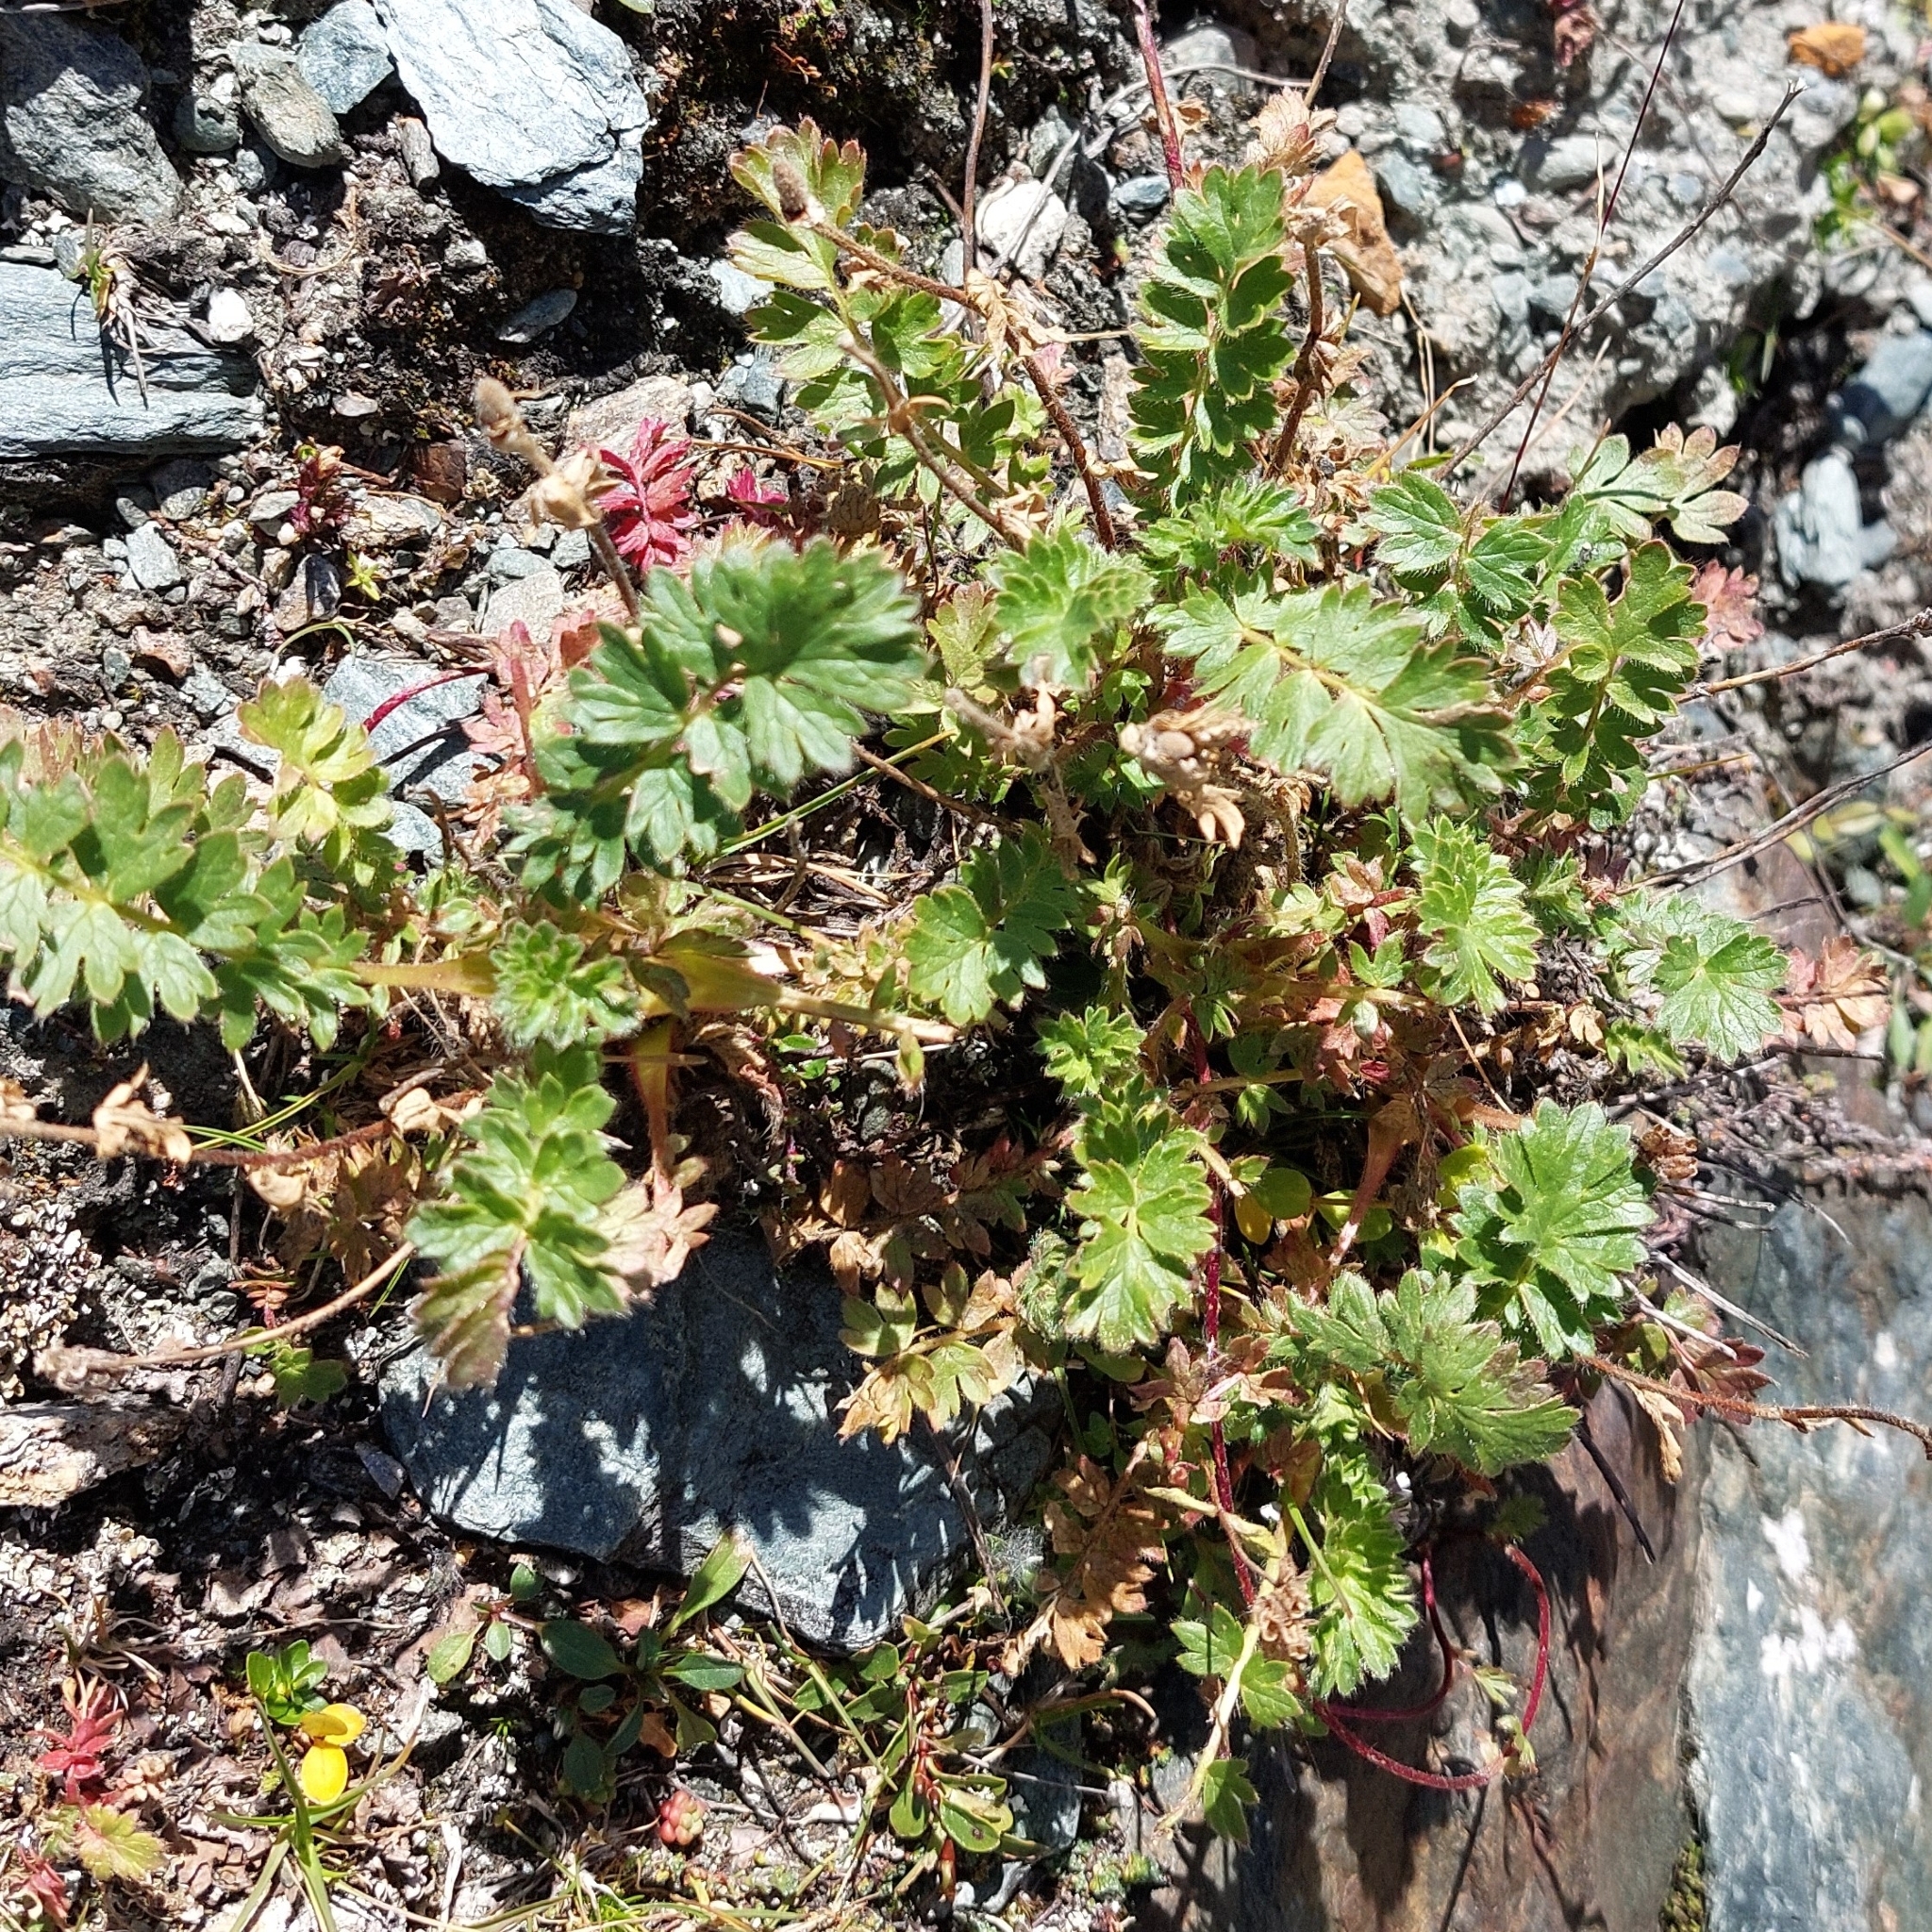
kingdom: Plantae
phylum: Tracheophyta
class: Magnoliopsida
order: Rosales
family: Rosaceae
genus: Geum
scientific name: Geum reptans
